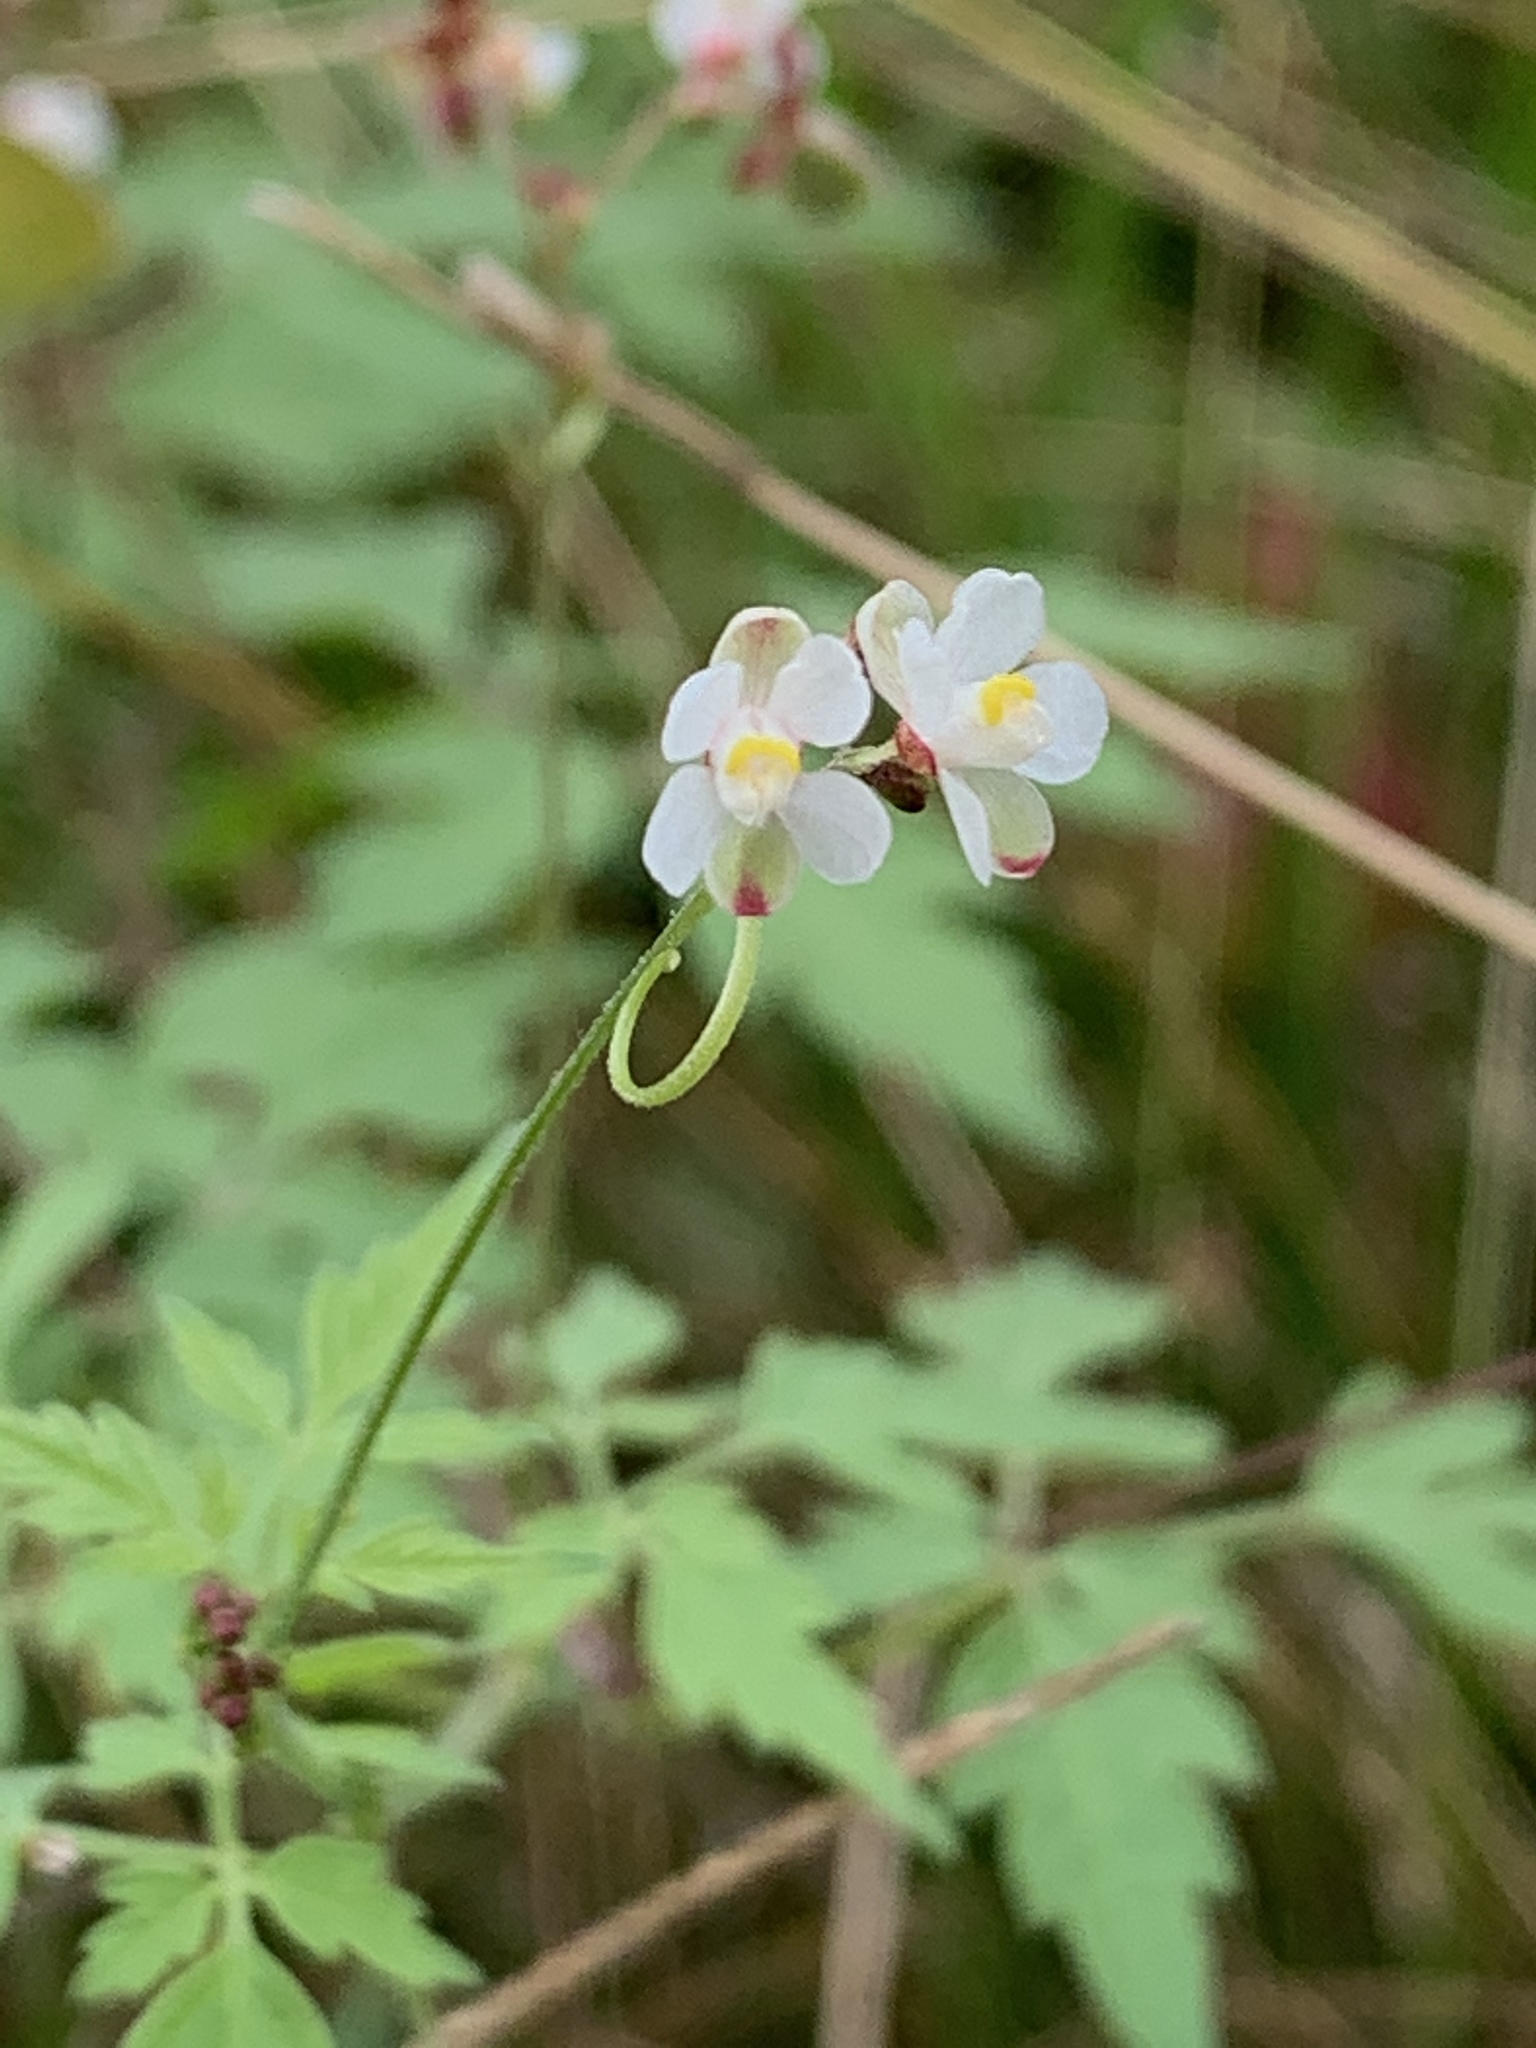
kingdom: Plantae
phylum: Tracheophyta
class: Magnoliopsida
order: Sapindales
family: Sapindaceae
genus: Cardiospermum
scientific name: Cardiospermum halicacabum
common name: Balloon vine
